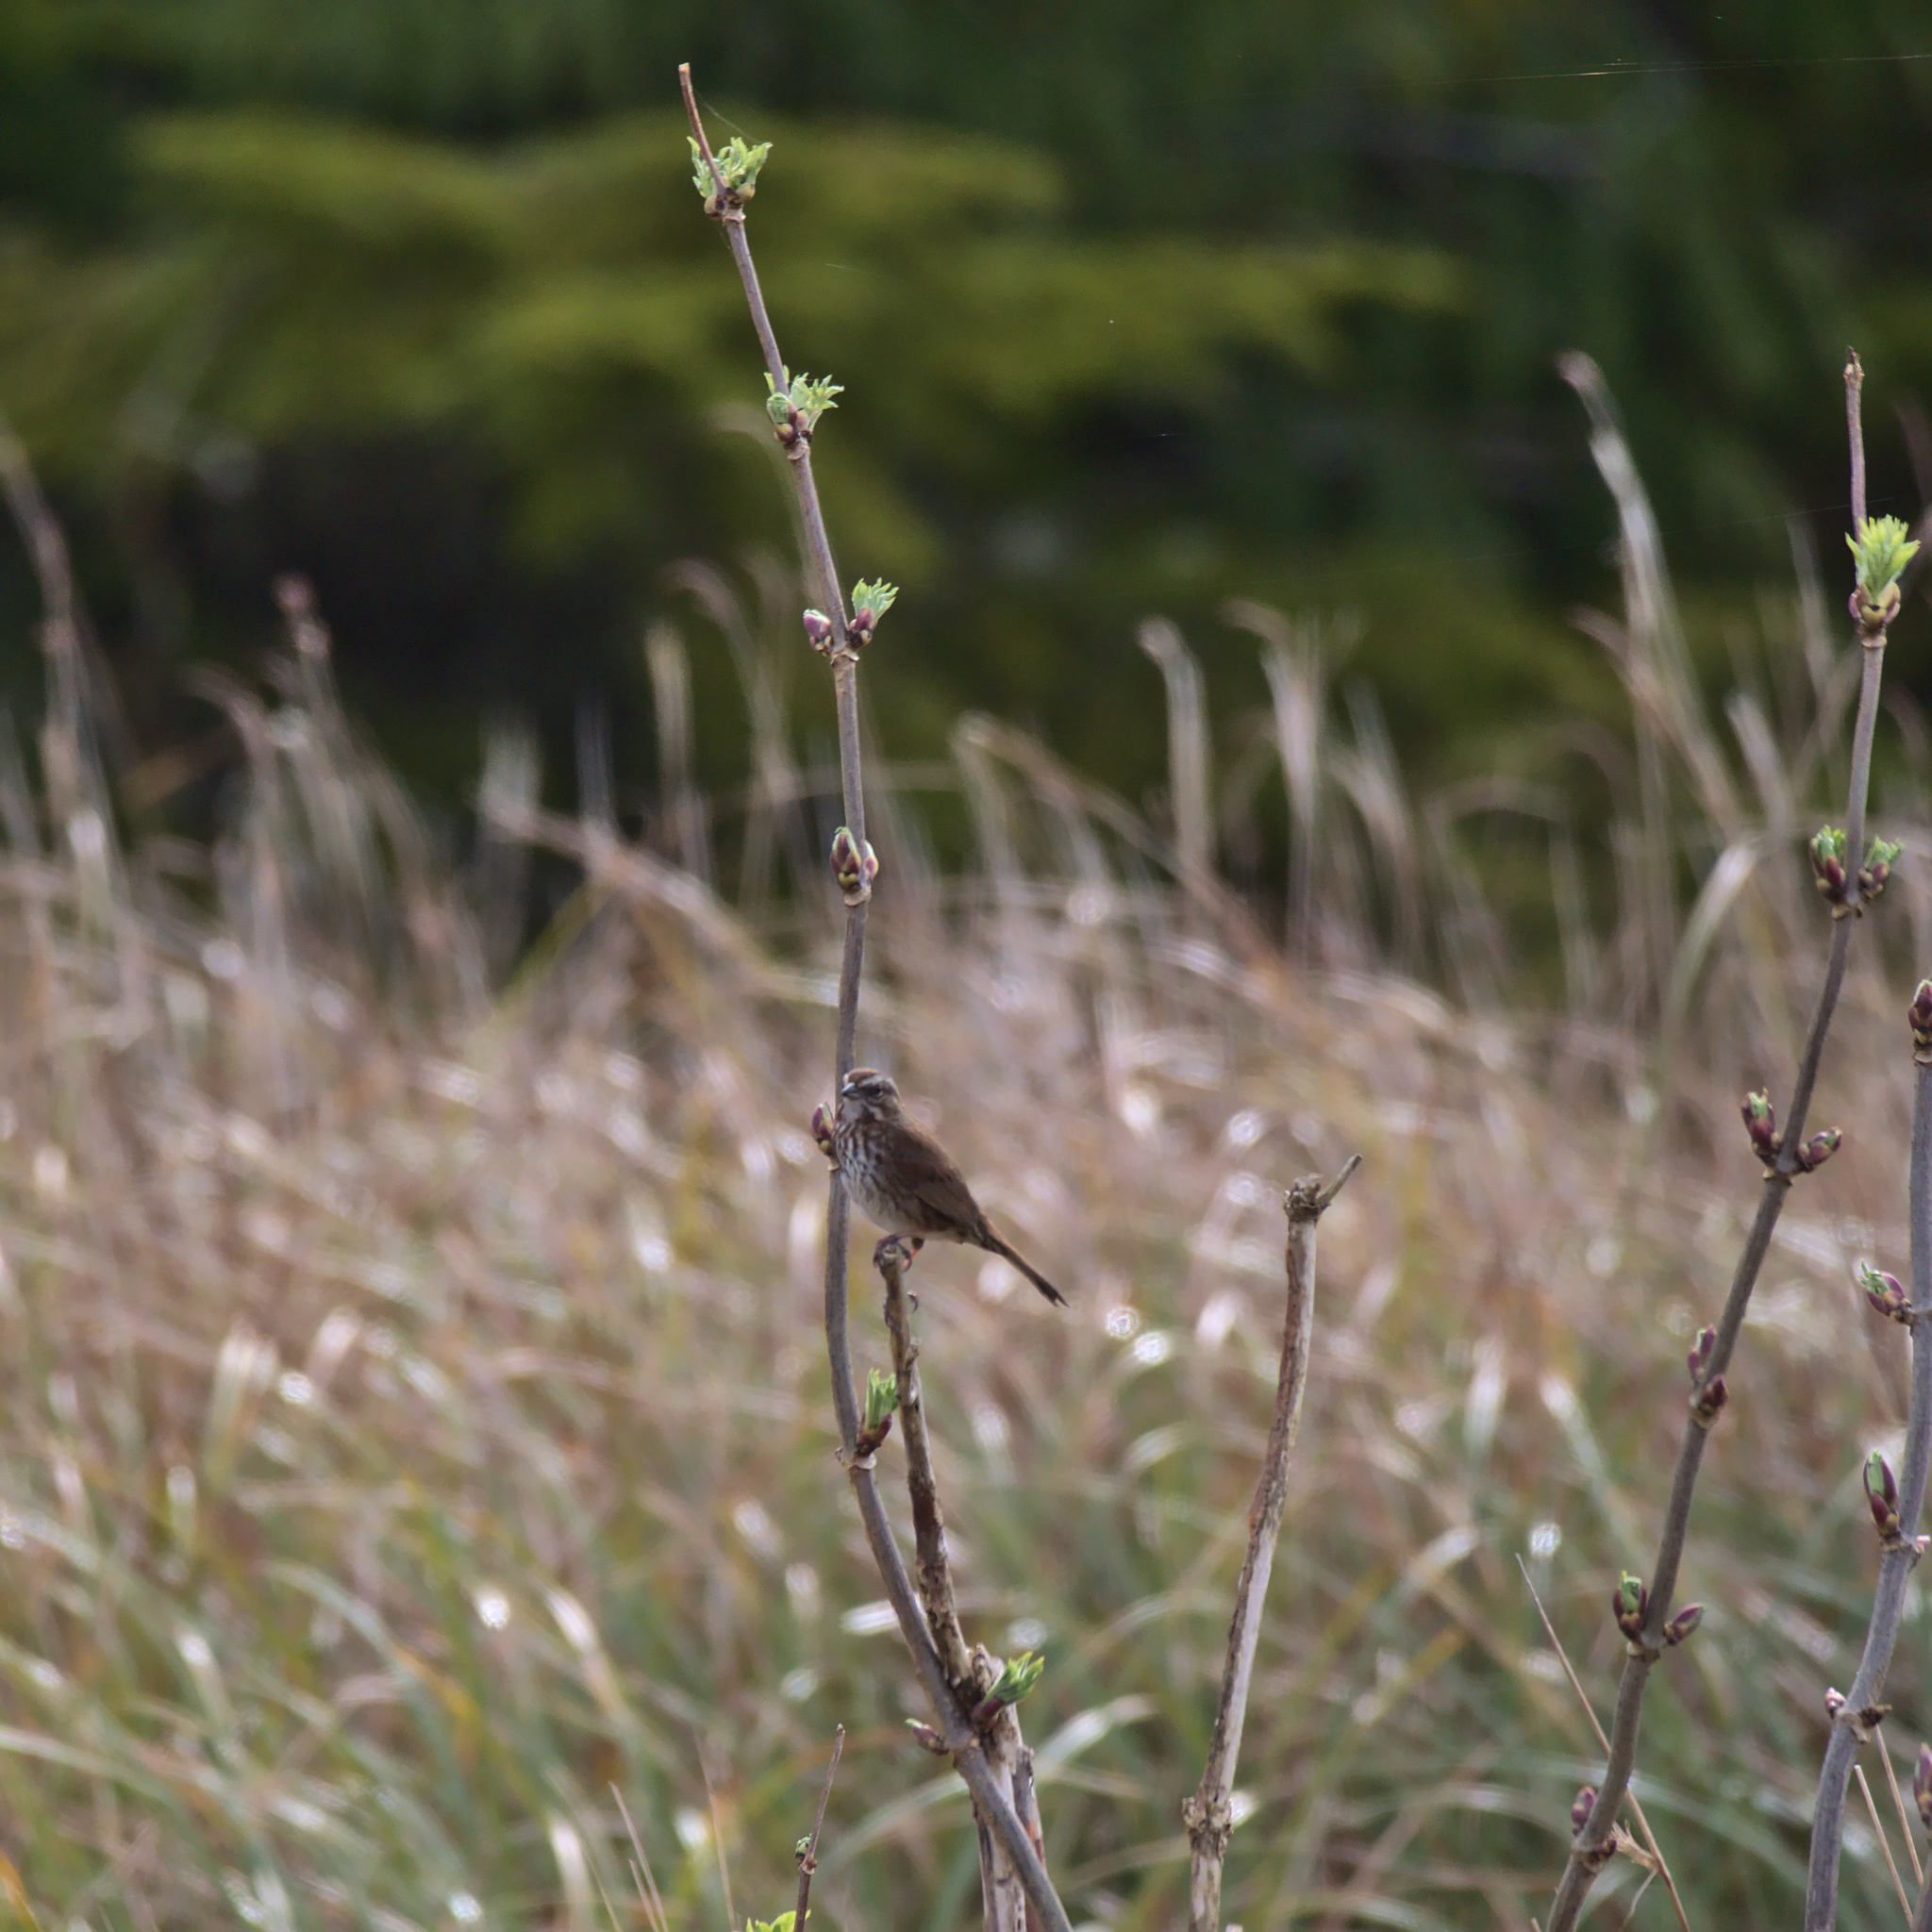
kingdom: Animalia
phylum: Chordata
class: Aves
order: Passeriformes
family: Passerellidae
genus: Melospiza
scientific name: Melospiza melodia
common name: Song sparrow
